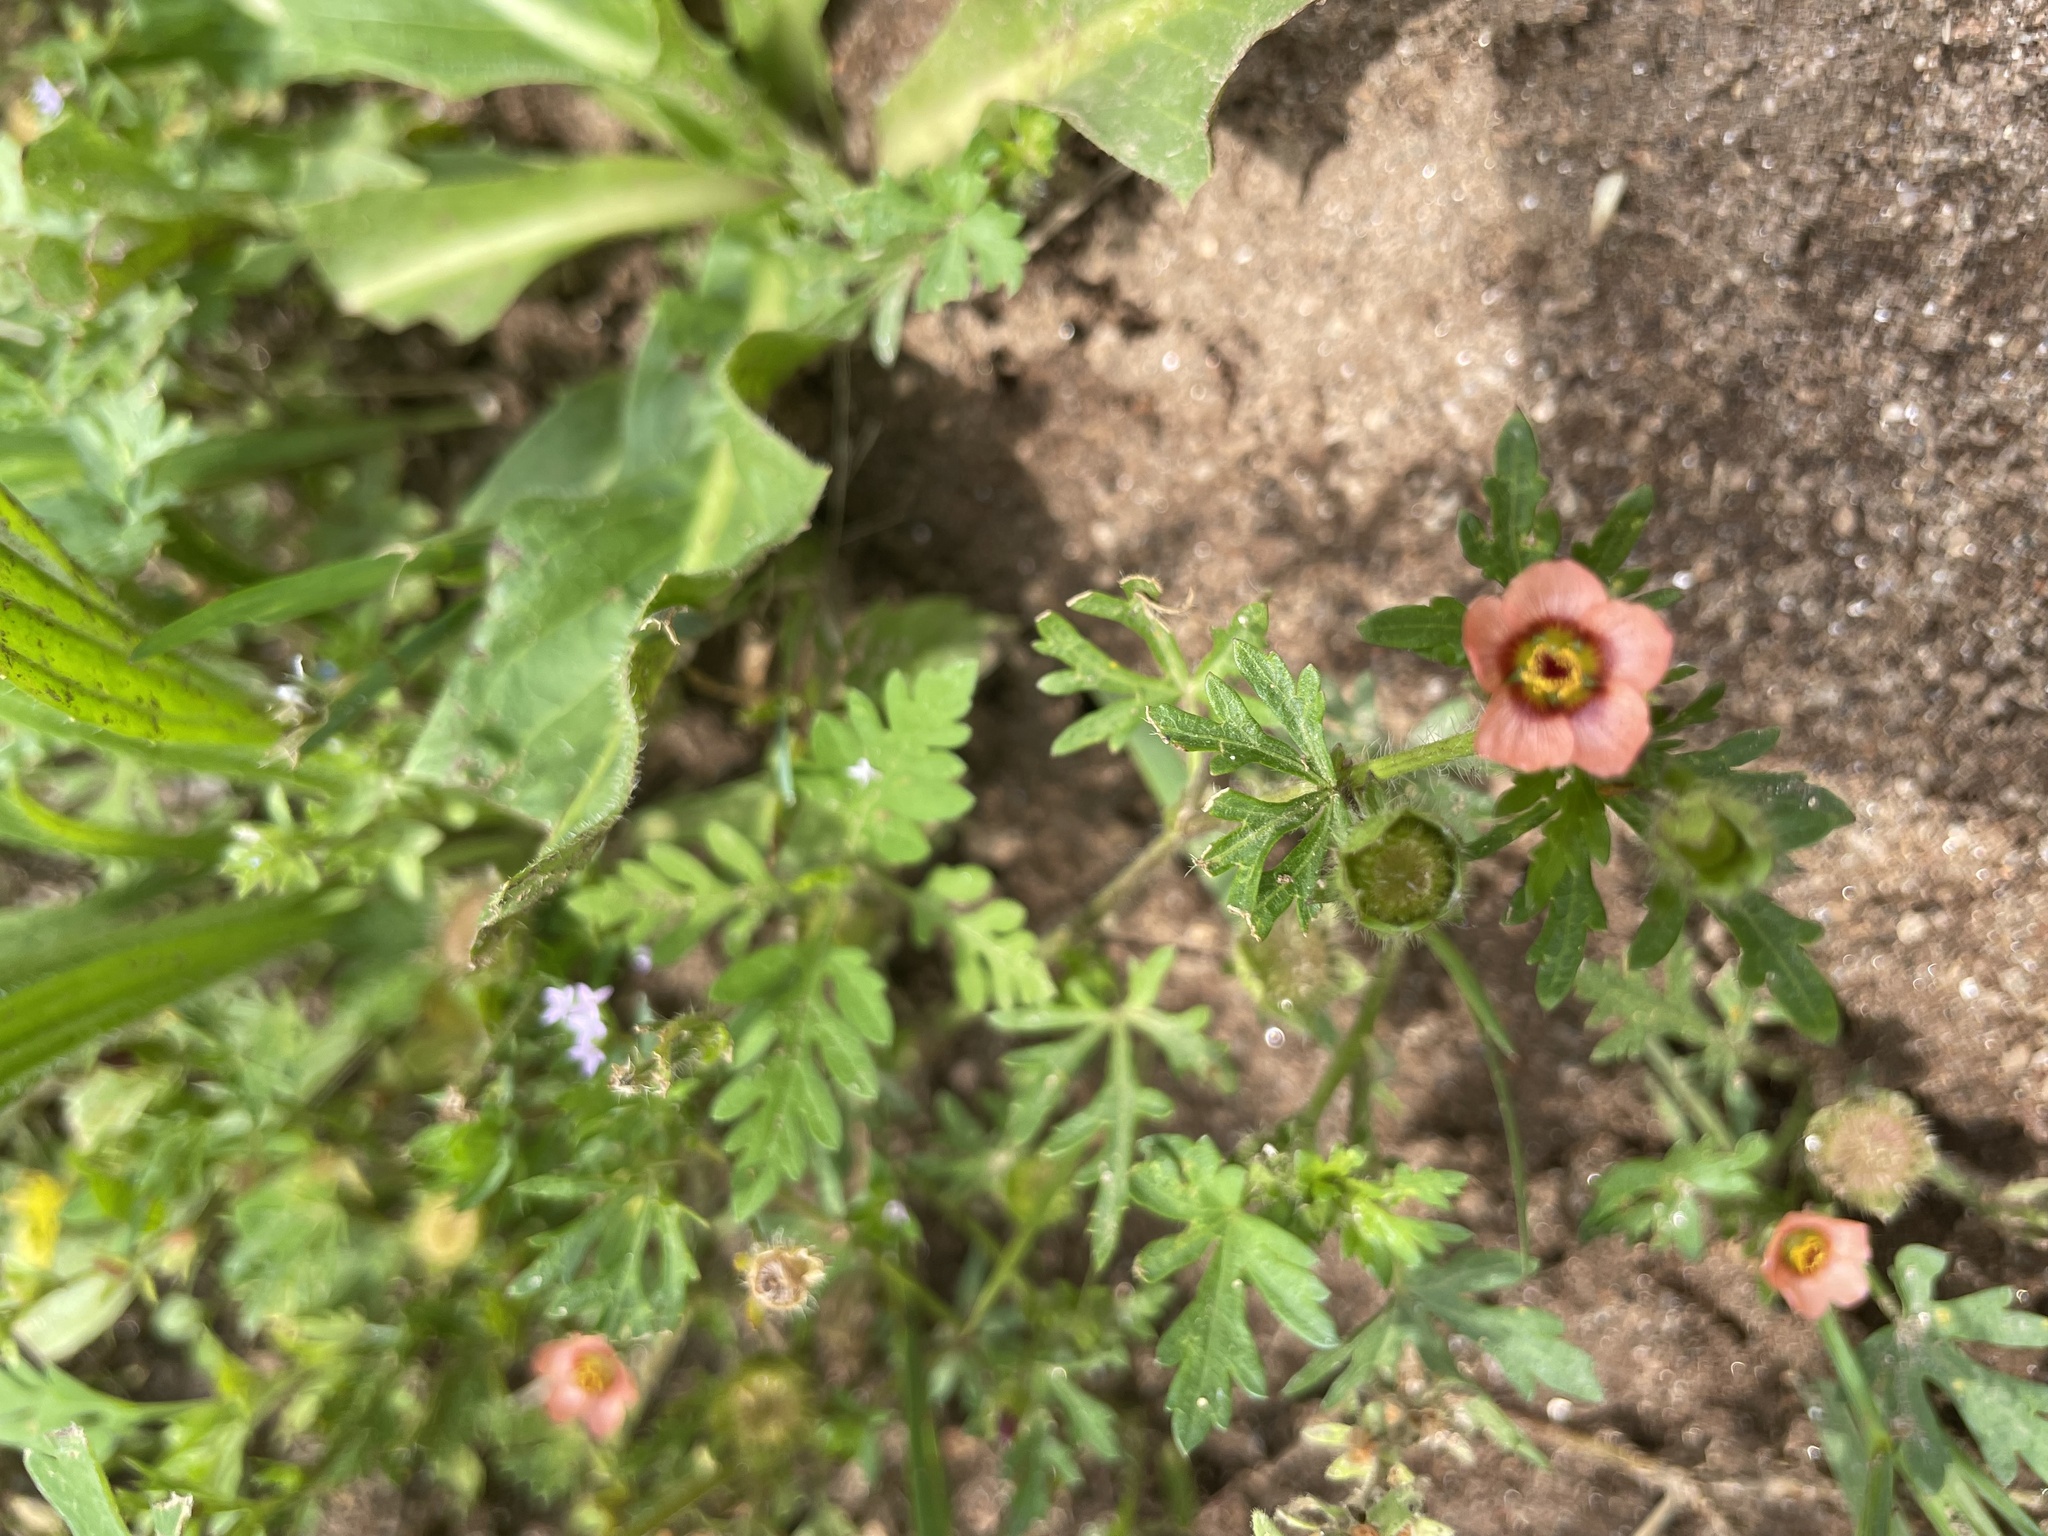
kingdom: Plantae
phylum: Tracheophyta
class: Magnoliopsida
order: Malvales
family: Malvaceae
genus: Modiola
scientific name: Modiola caroliniana
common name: Carolina bristlemallow
